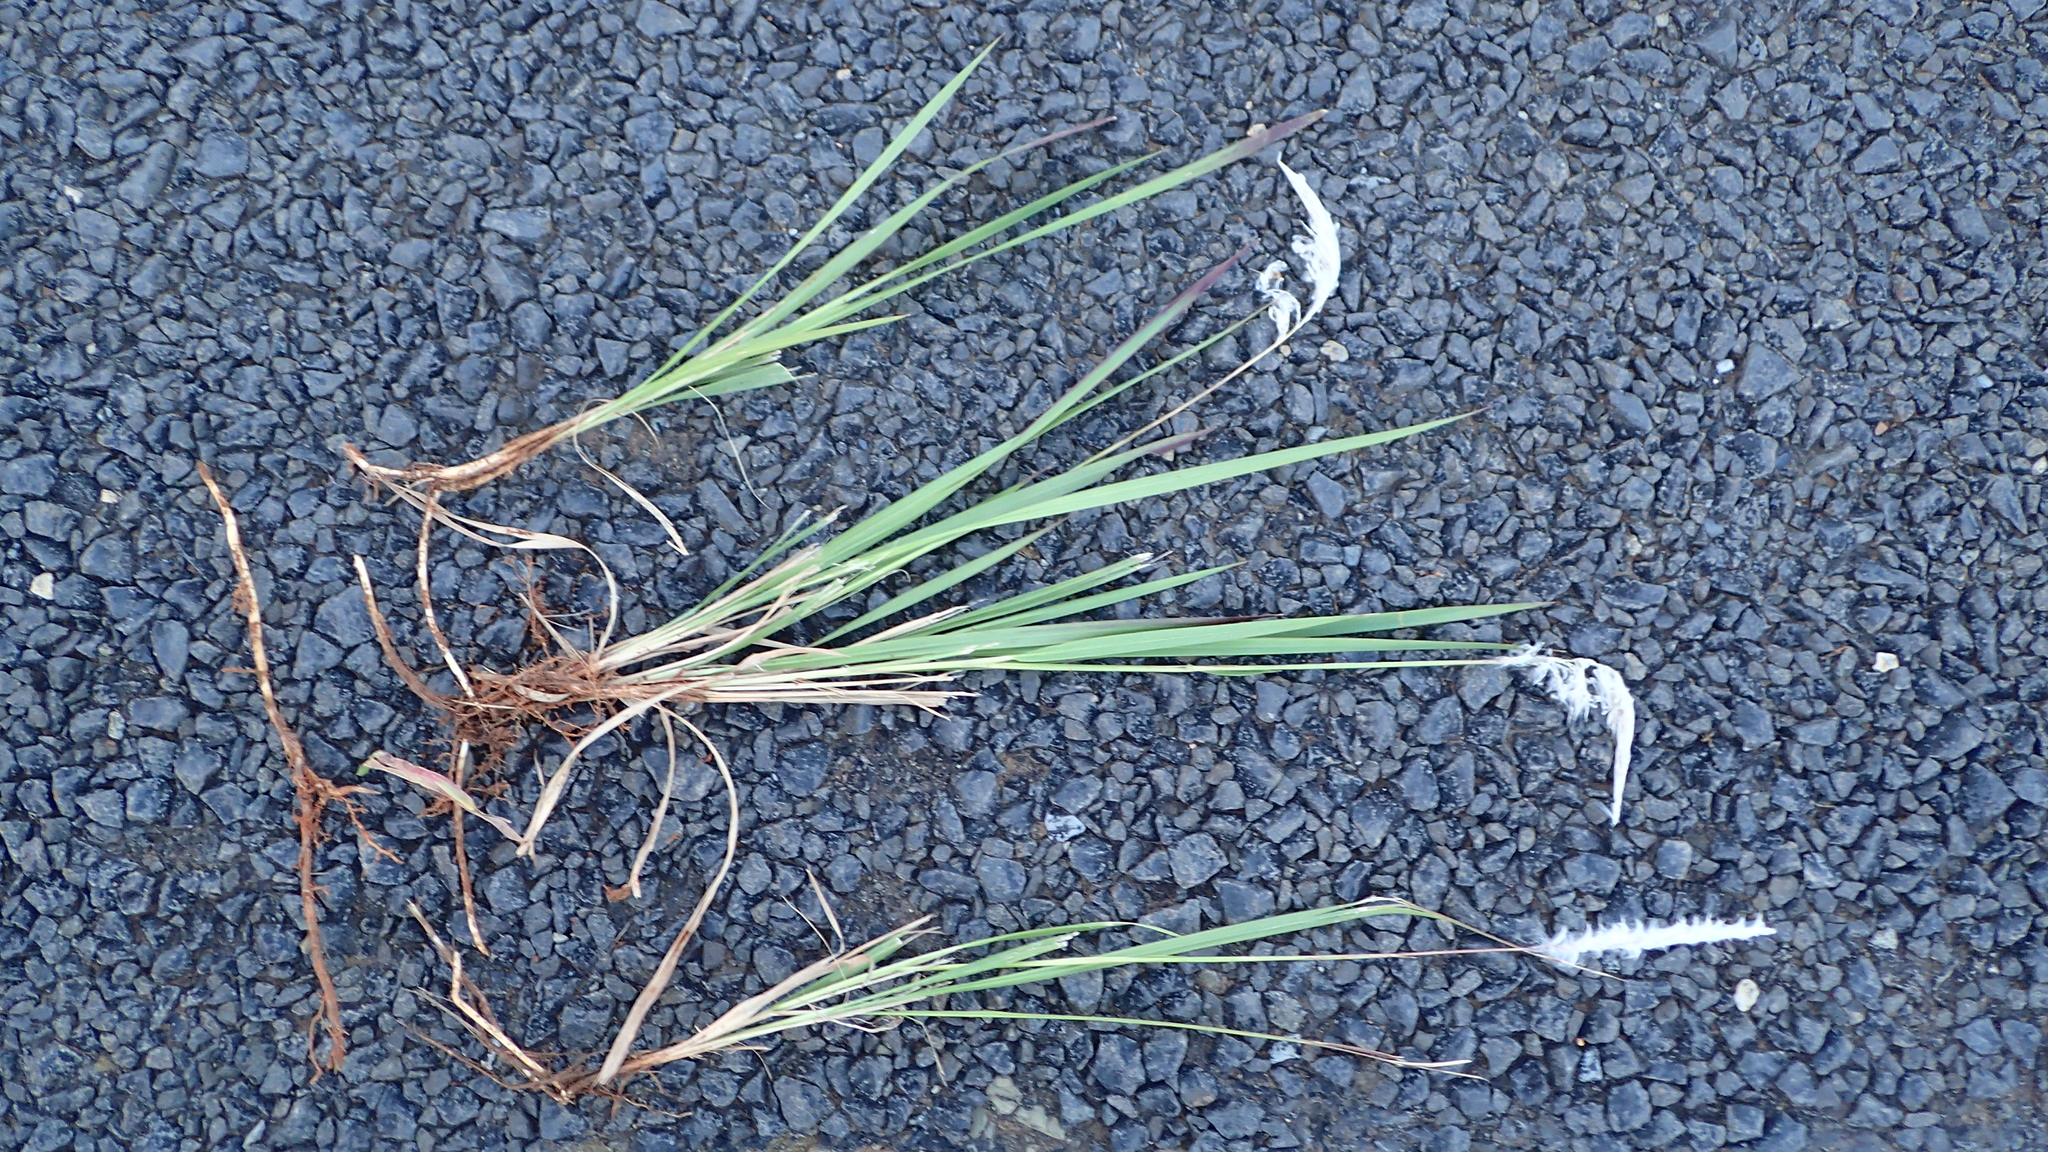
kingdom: Plantae
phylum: Tracheophyta
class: Liliopsida
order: Poales
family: Poaceae
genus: Imperata
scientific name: Imperata cylindrica
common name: Cogongrass
